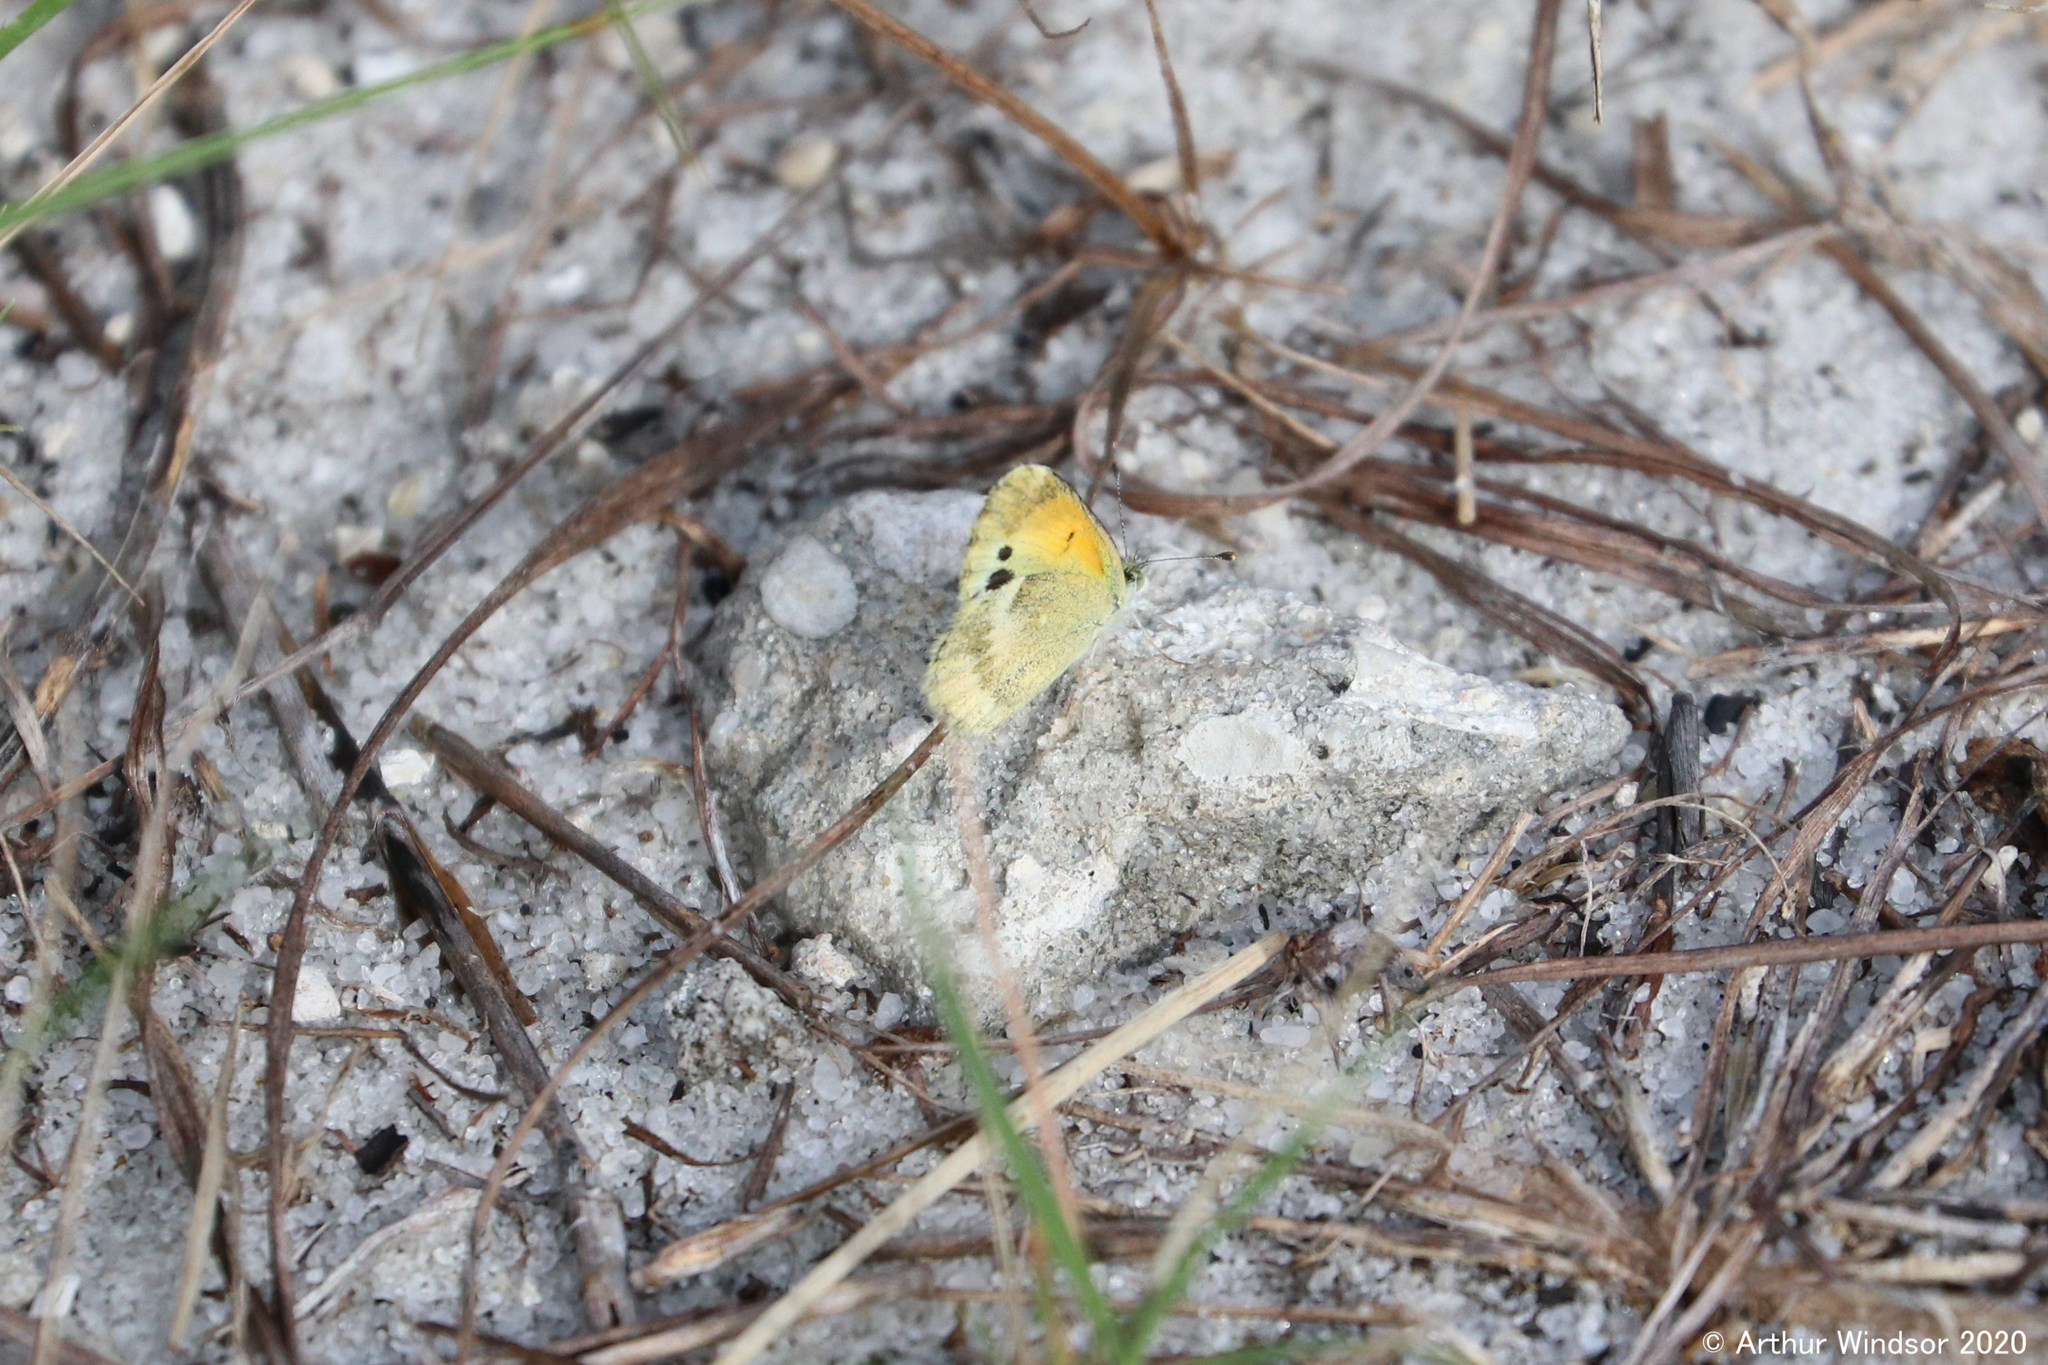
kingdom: Animalia
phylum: Arthropoda
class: Insecta
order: Lepidoptera
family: Pieridae
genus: Nathalis
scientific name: Nathalis iole
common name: Dainty sulphur
